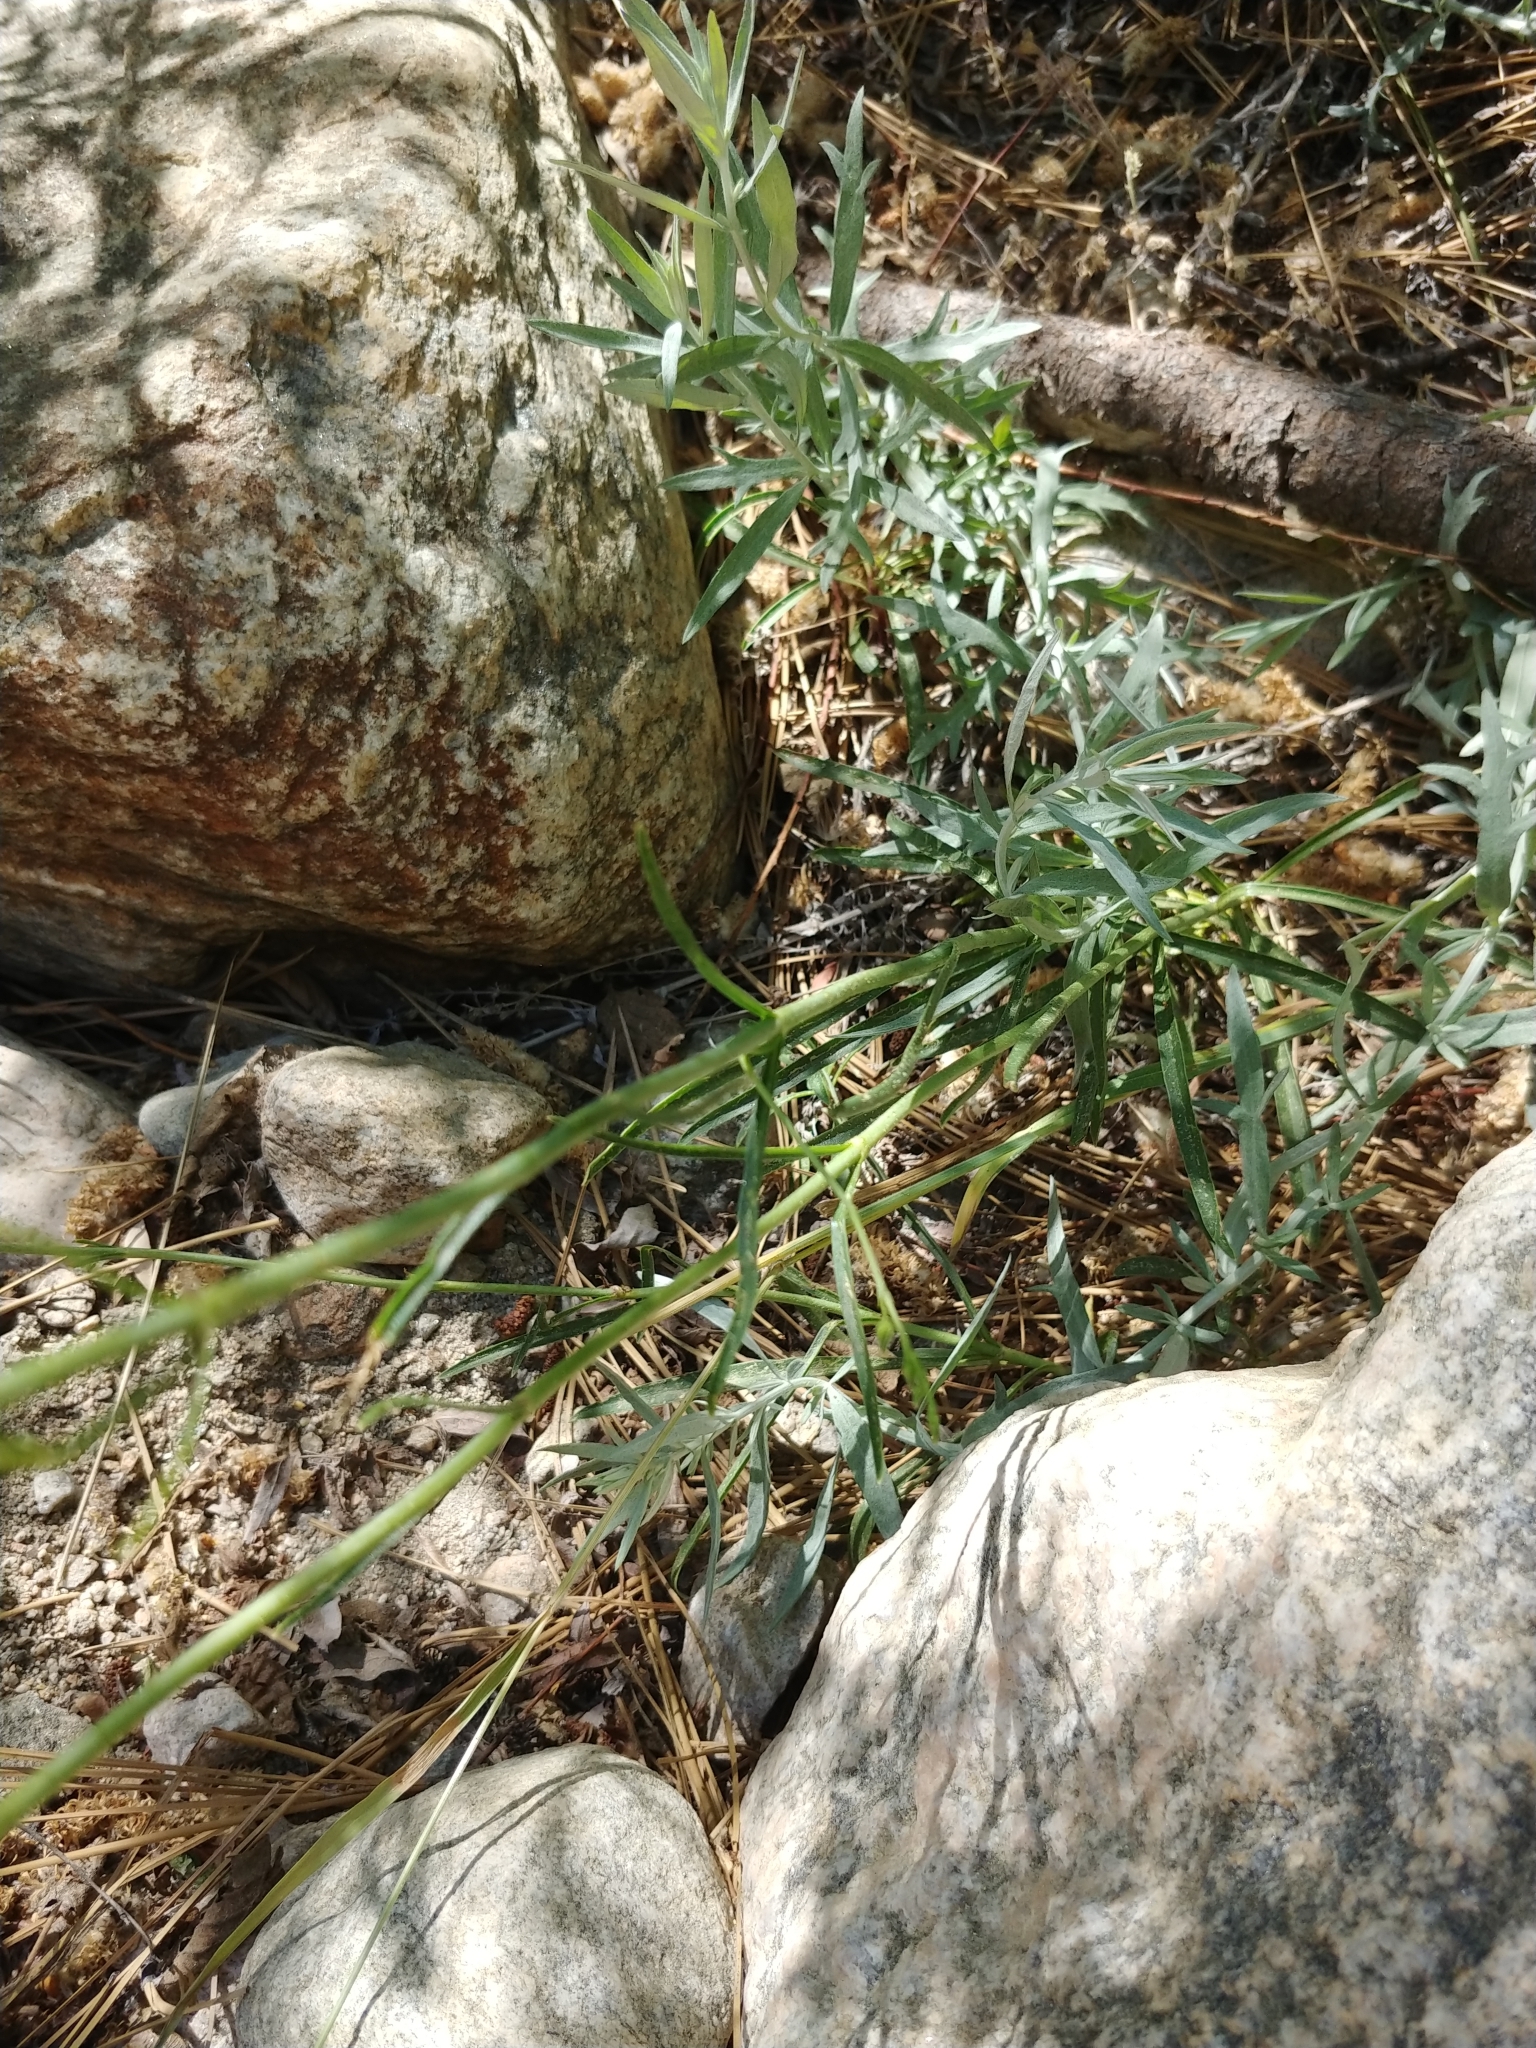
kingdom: Plantae
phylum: Tracheophyta
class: Magnoliopsida
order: Lamiales
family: Plantaginaceae
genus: Penstemon
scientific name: Penstemon labrosus
